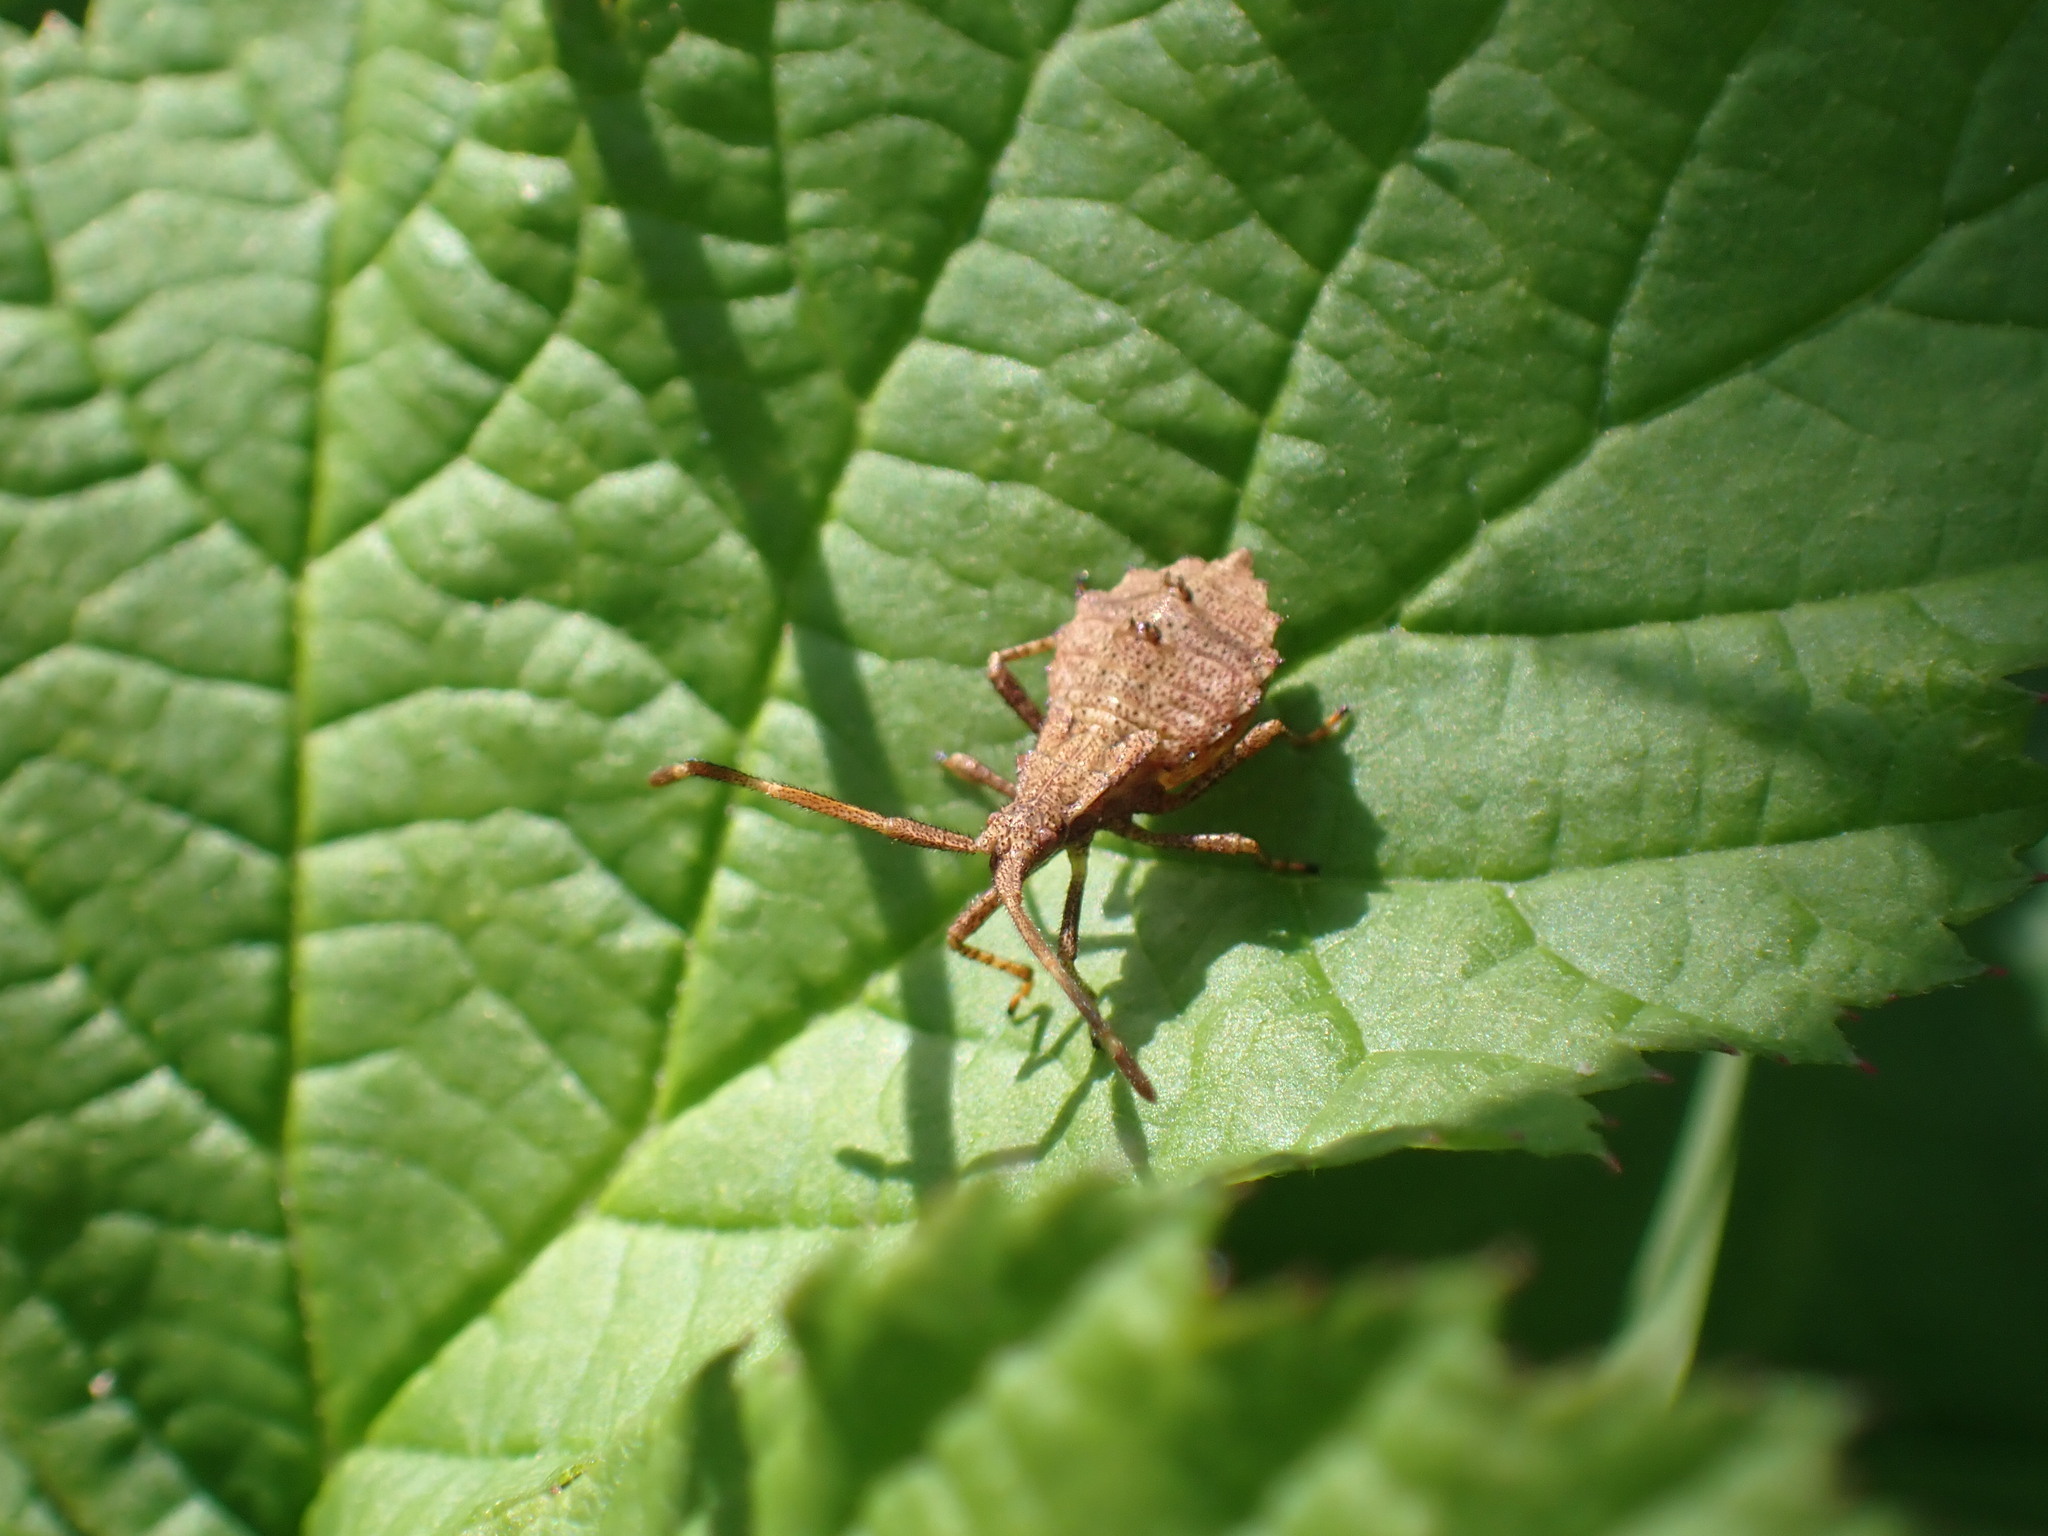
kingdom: Animalia
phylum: Arthropoda
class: Insecta
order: Hemiptera
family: Coreidae
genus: Coreus
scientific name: Coreus marginatus
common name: Dock bug
